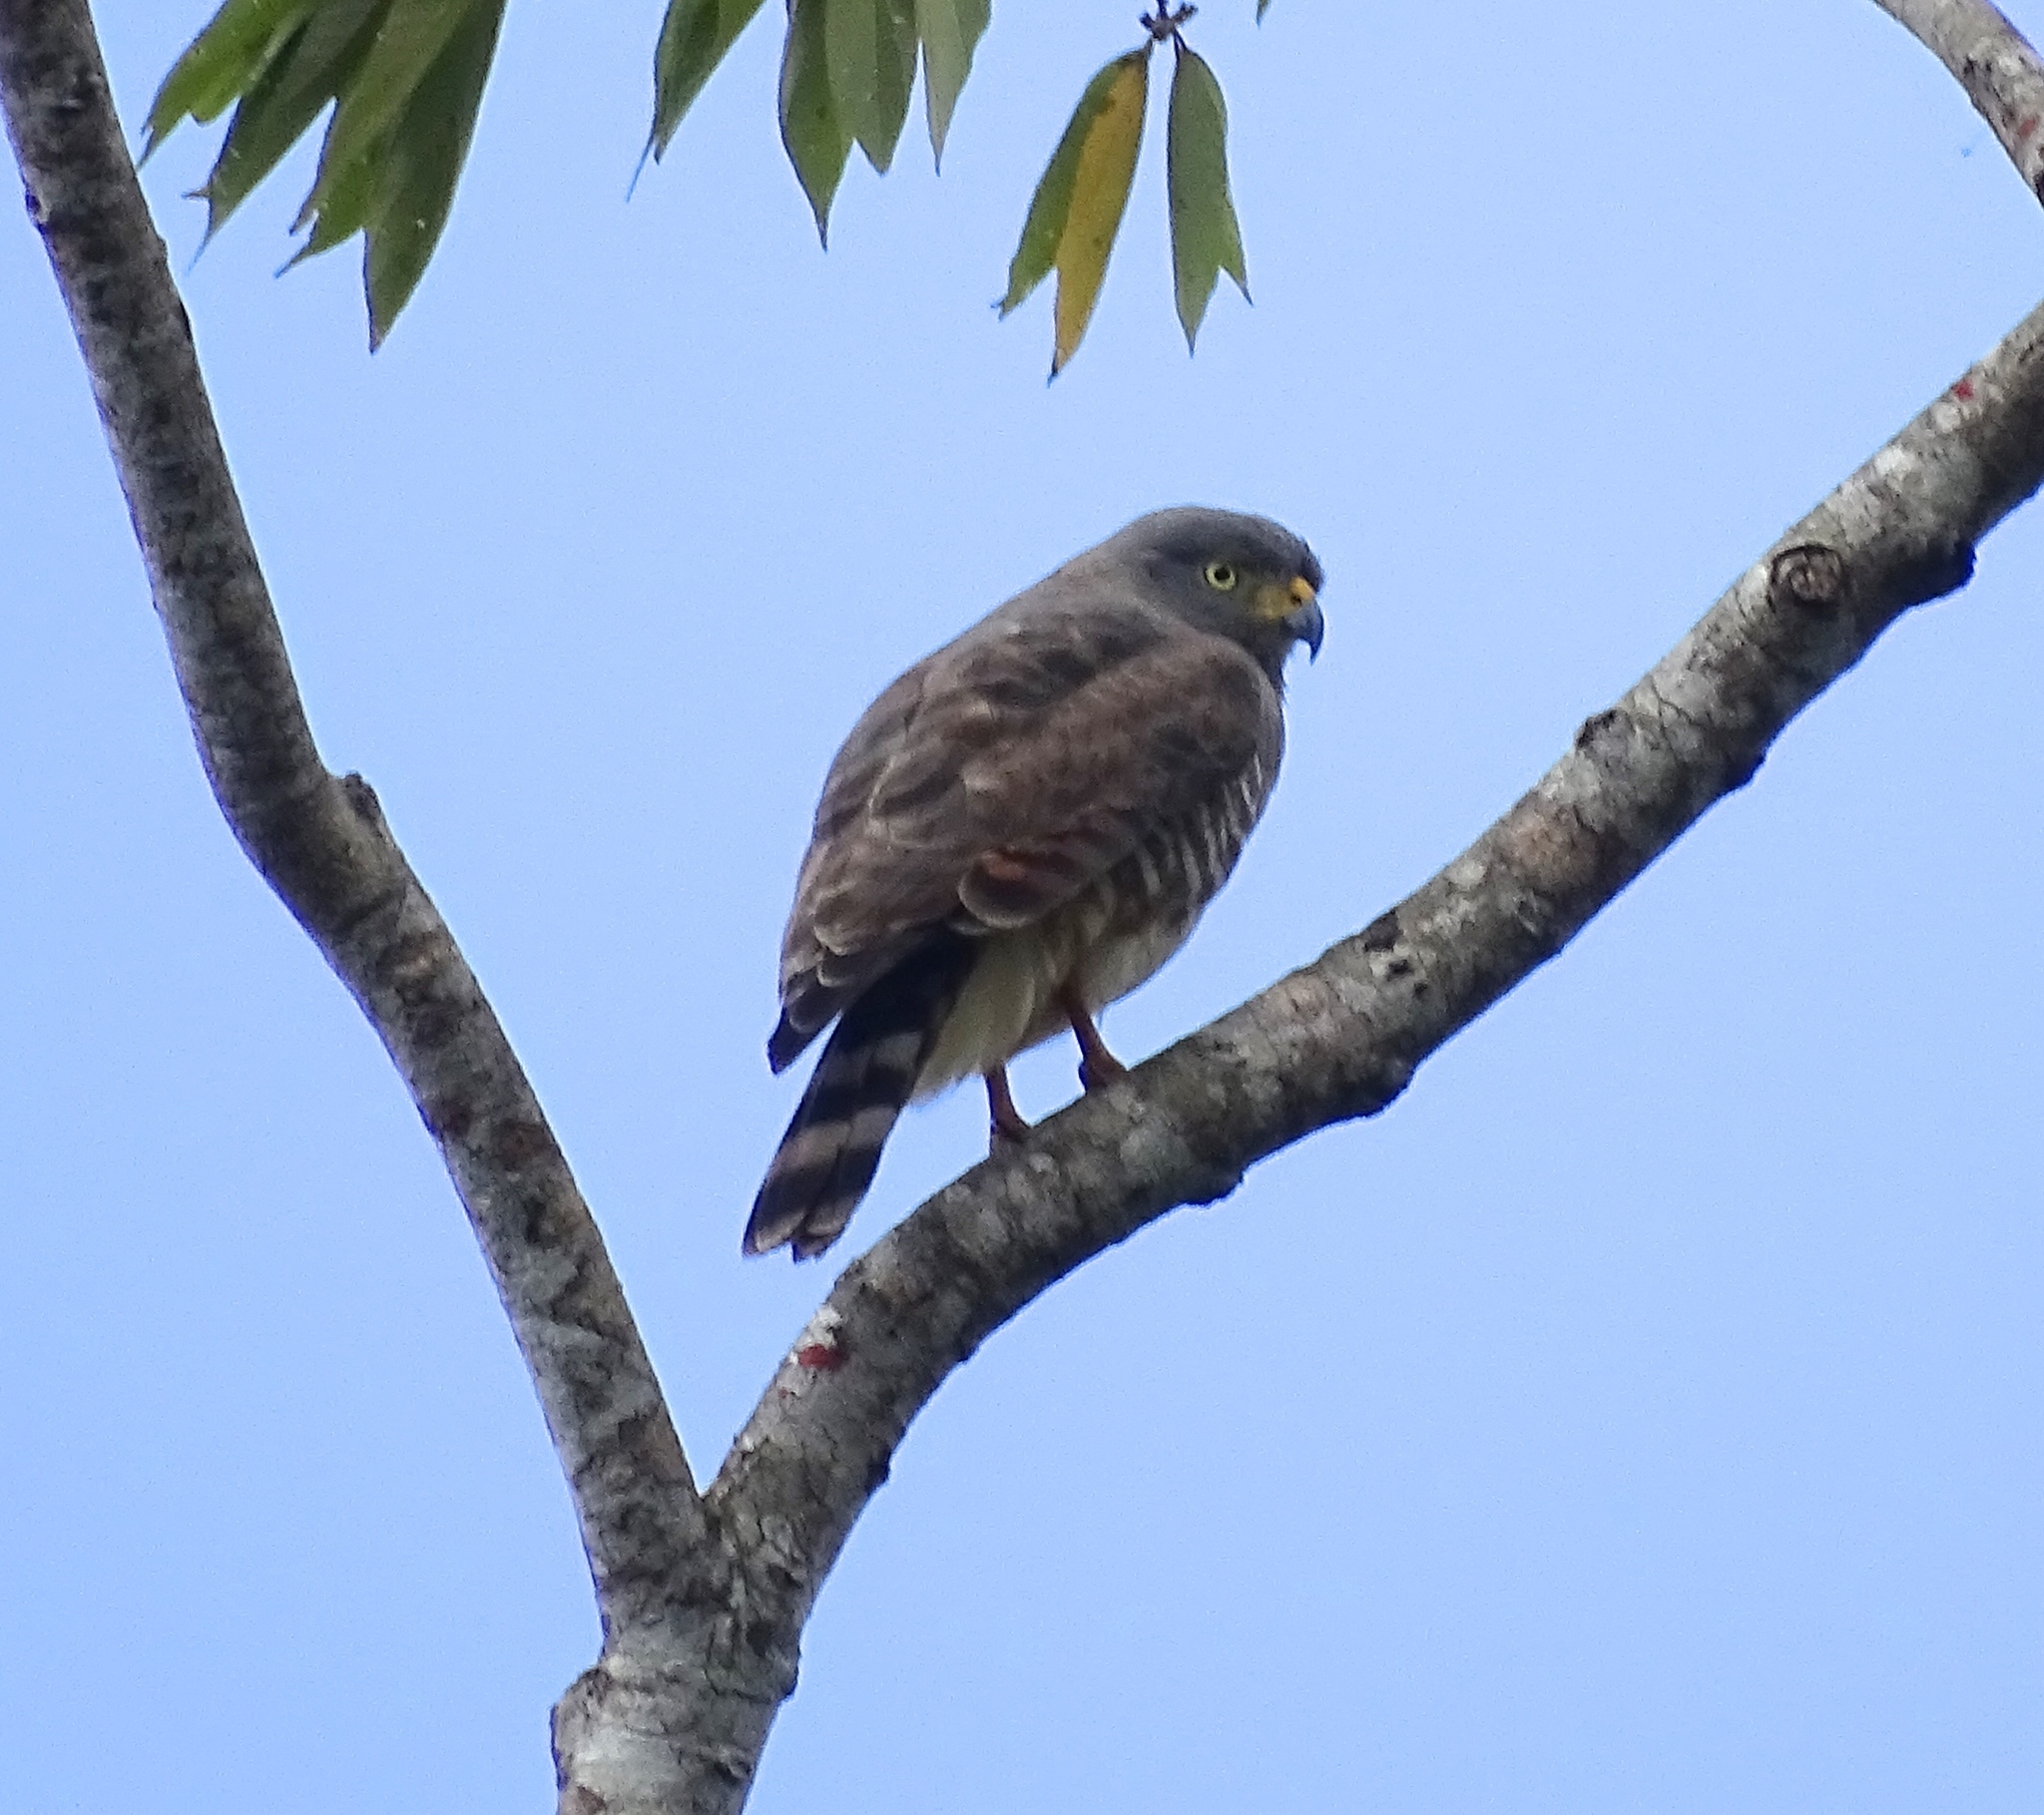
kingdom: Animalia
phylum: Chordata
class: Aves
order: Accipitriformes
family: Accipitridae
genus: Rupornis
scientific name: Rupornis magnirostris
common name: Roadside hawk
